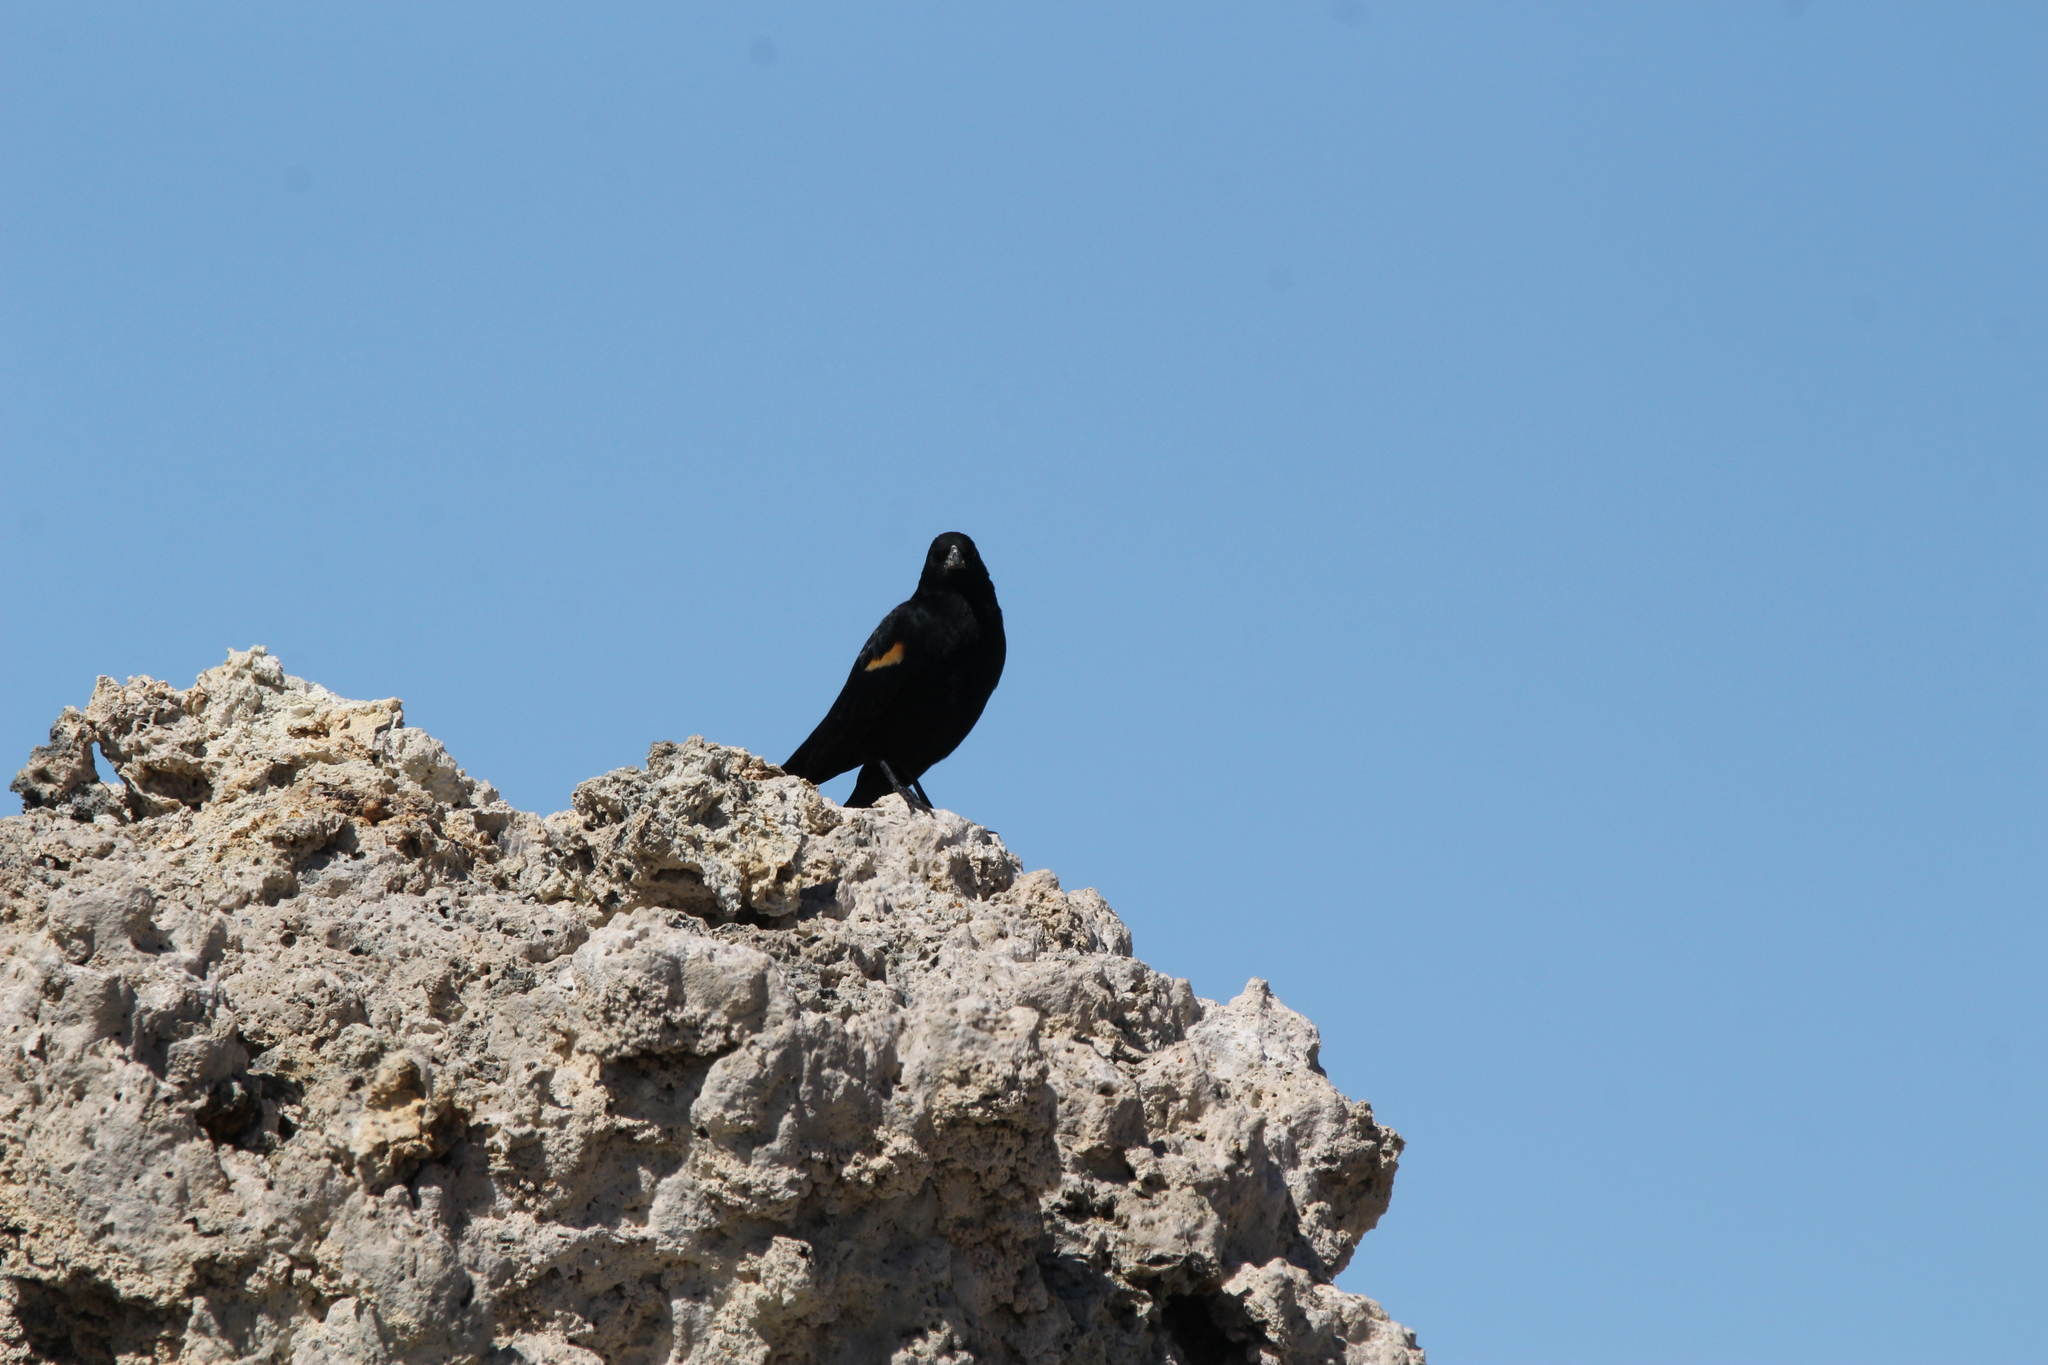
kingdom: Animalia
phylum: Chordata
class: Aves
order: Passeriformes
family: Icteridae
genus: Agelaius
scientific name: Agelaius phoeniceus
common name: Red-winged blackbird
